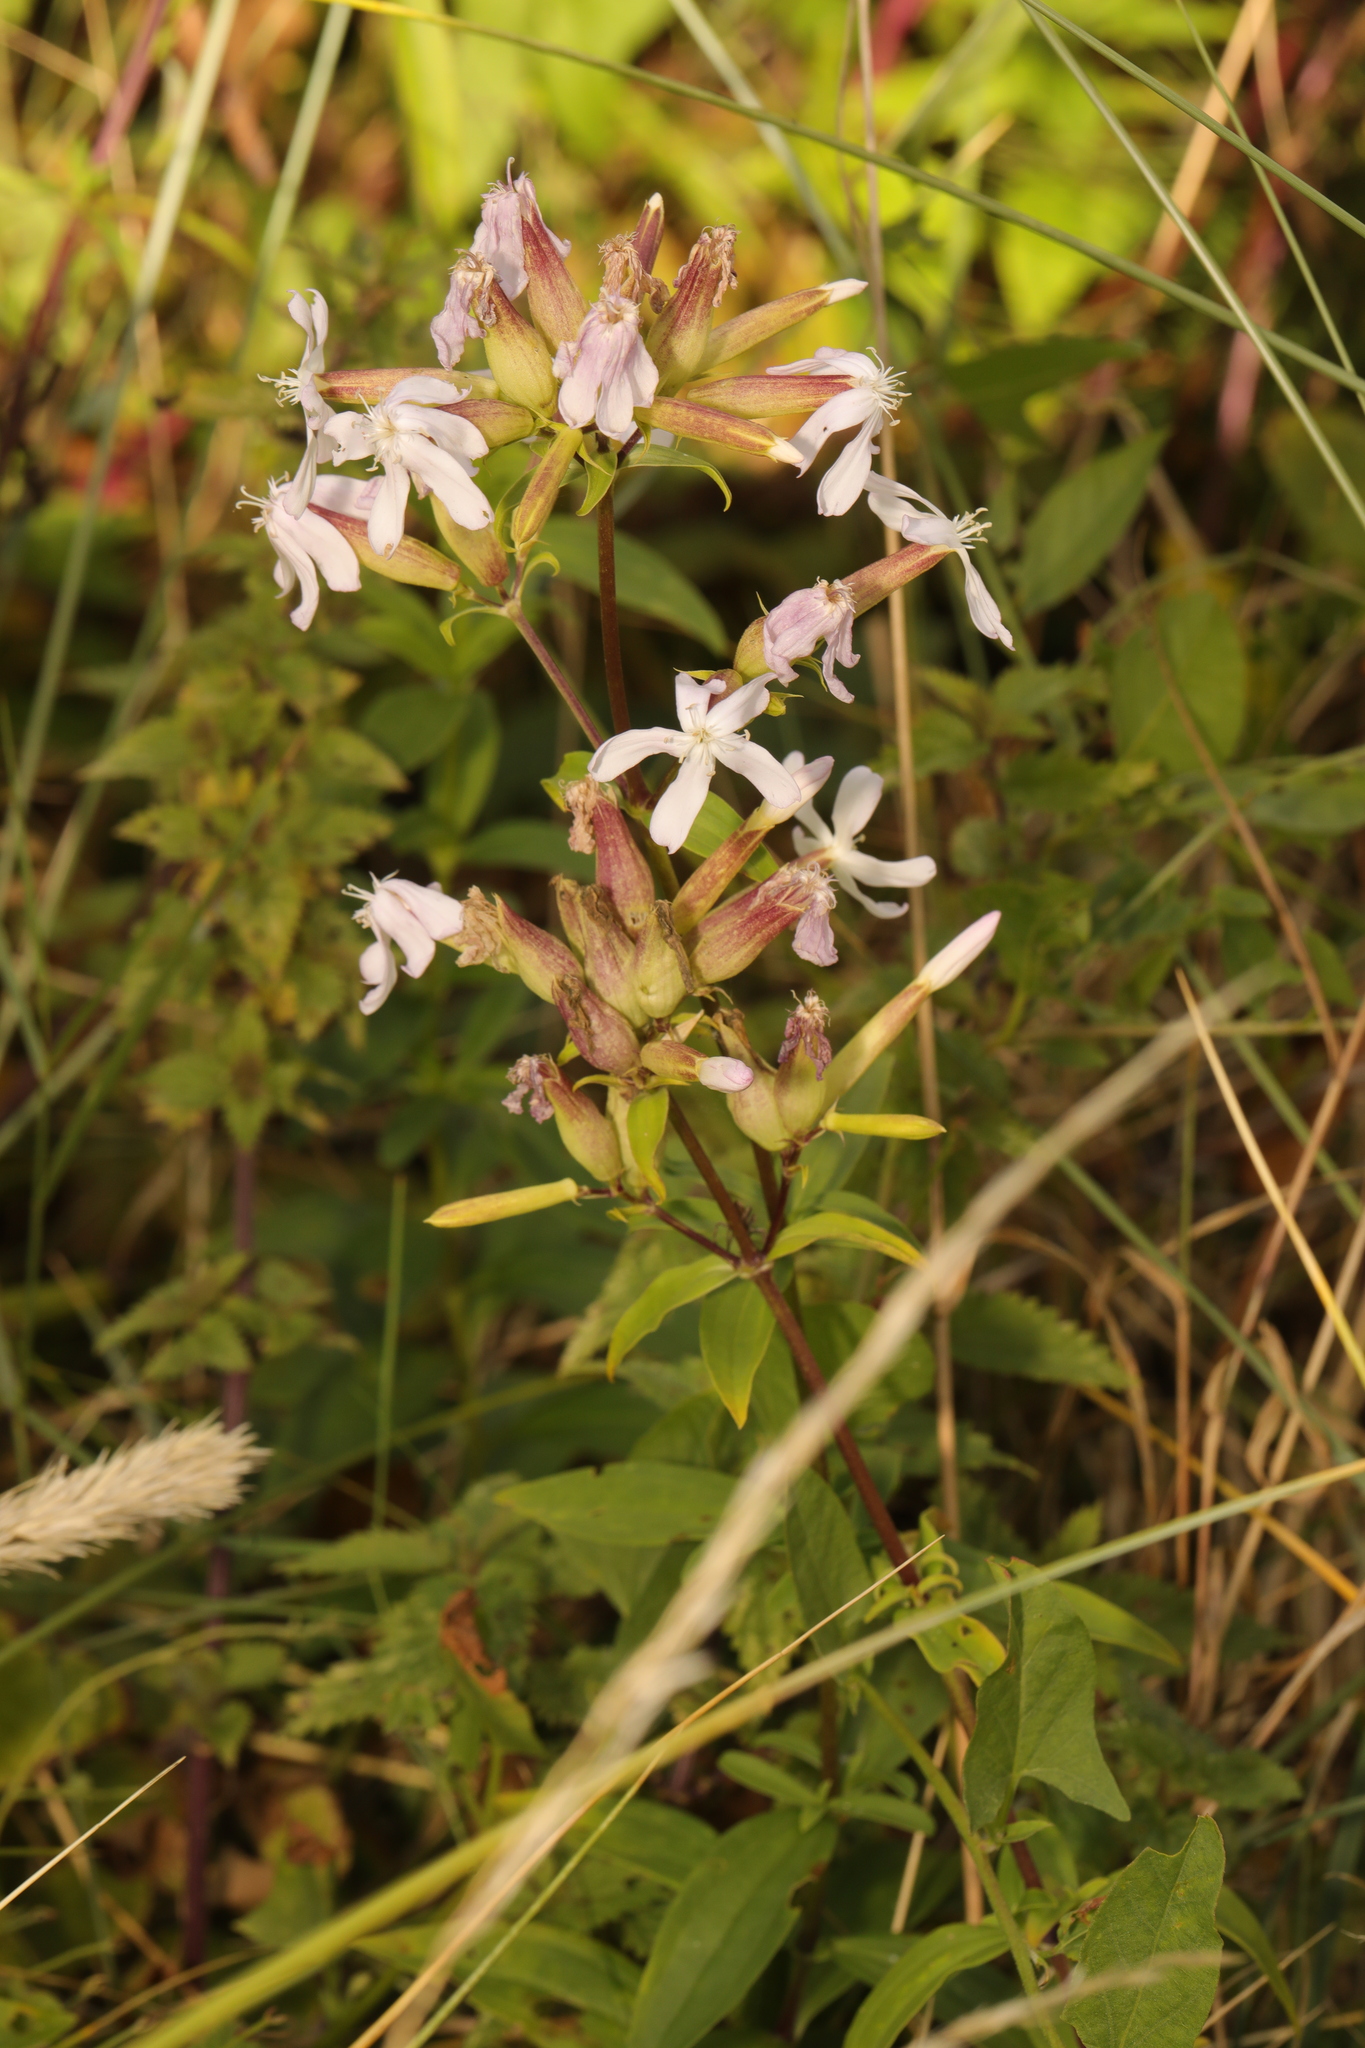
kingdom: Plantae
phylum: Tracheophyta
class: Magnoliopsida
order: Caryophyllales
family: Caryophyllaceae
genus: Saponaria
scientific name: Saponaria officinalis
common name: Soapwort
